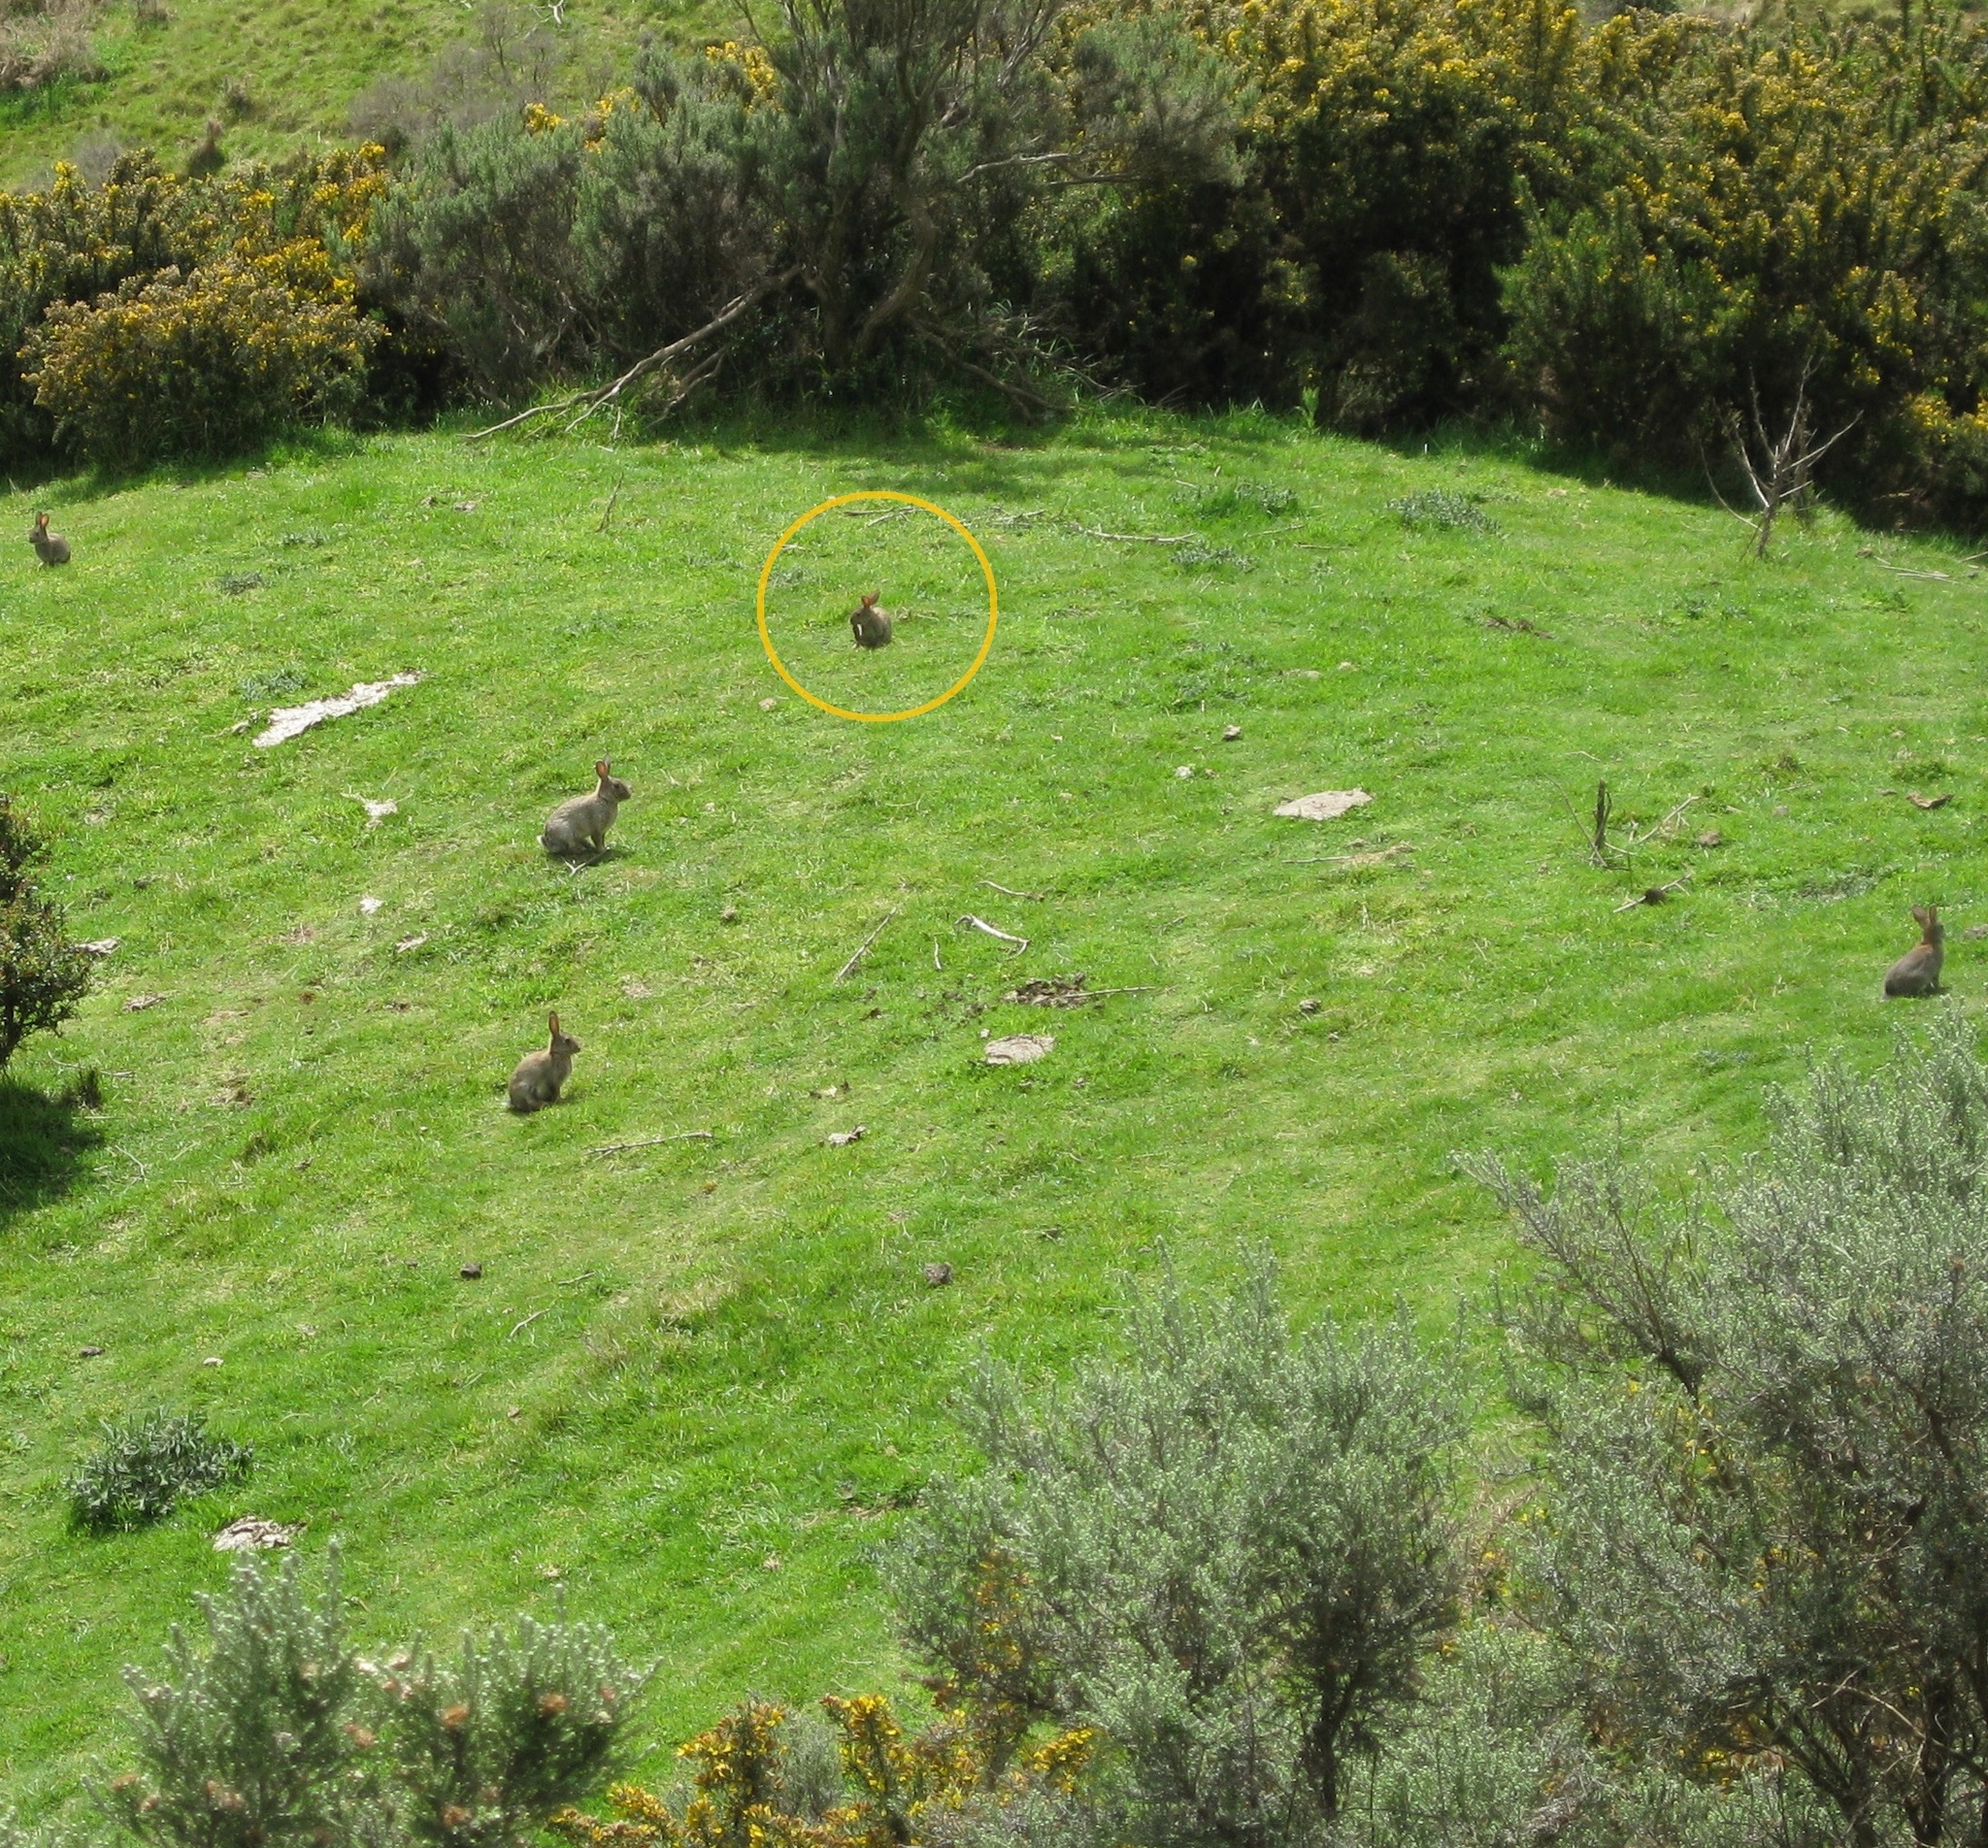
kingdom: Animalia
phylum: Chordata
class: Mammalia
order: Lagomorpha
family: Leporidae
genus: Oryctolagus
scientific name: Oryctolagus cuniculus
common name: European rabbit
